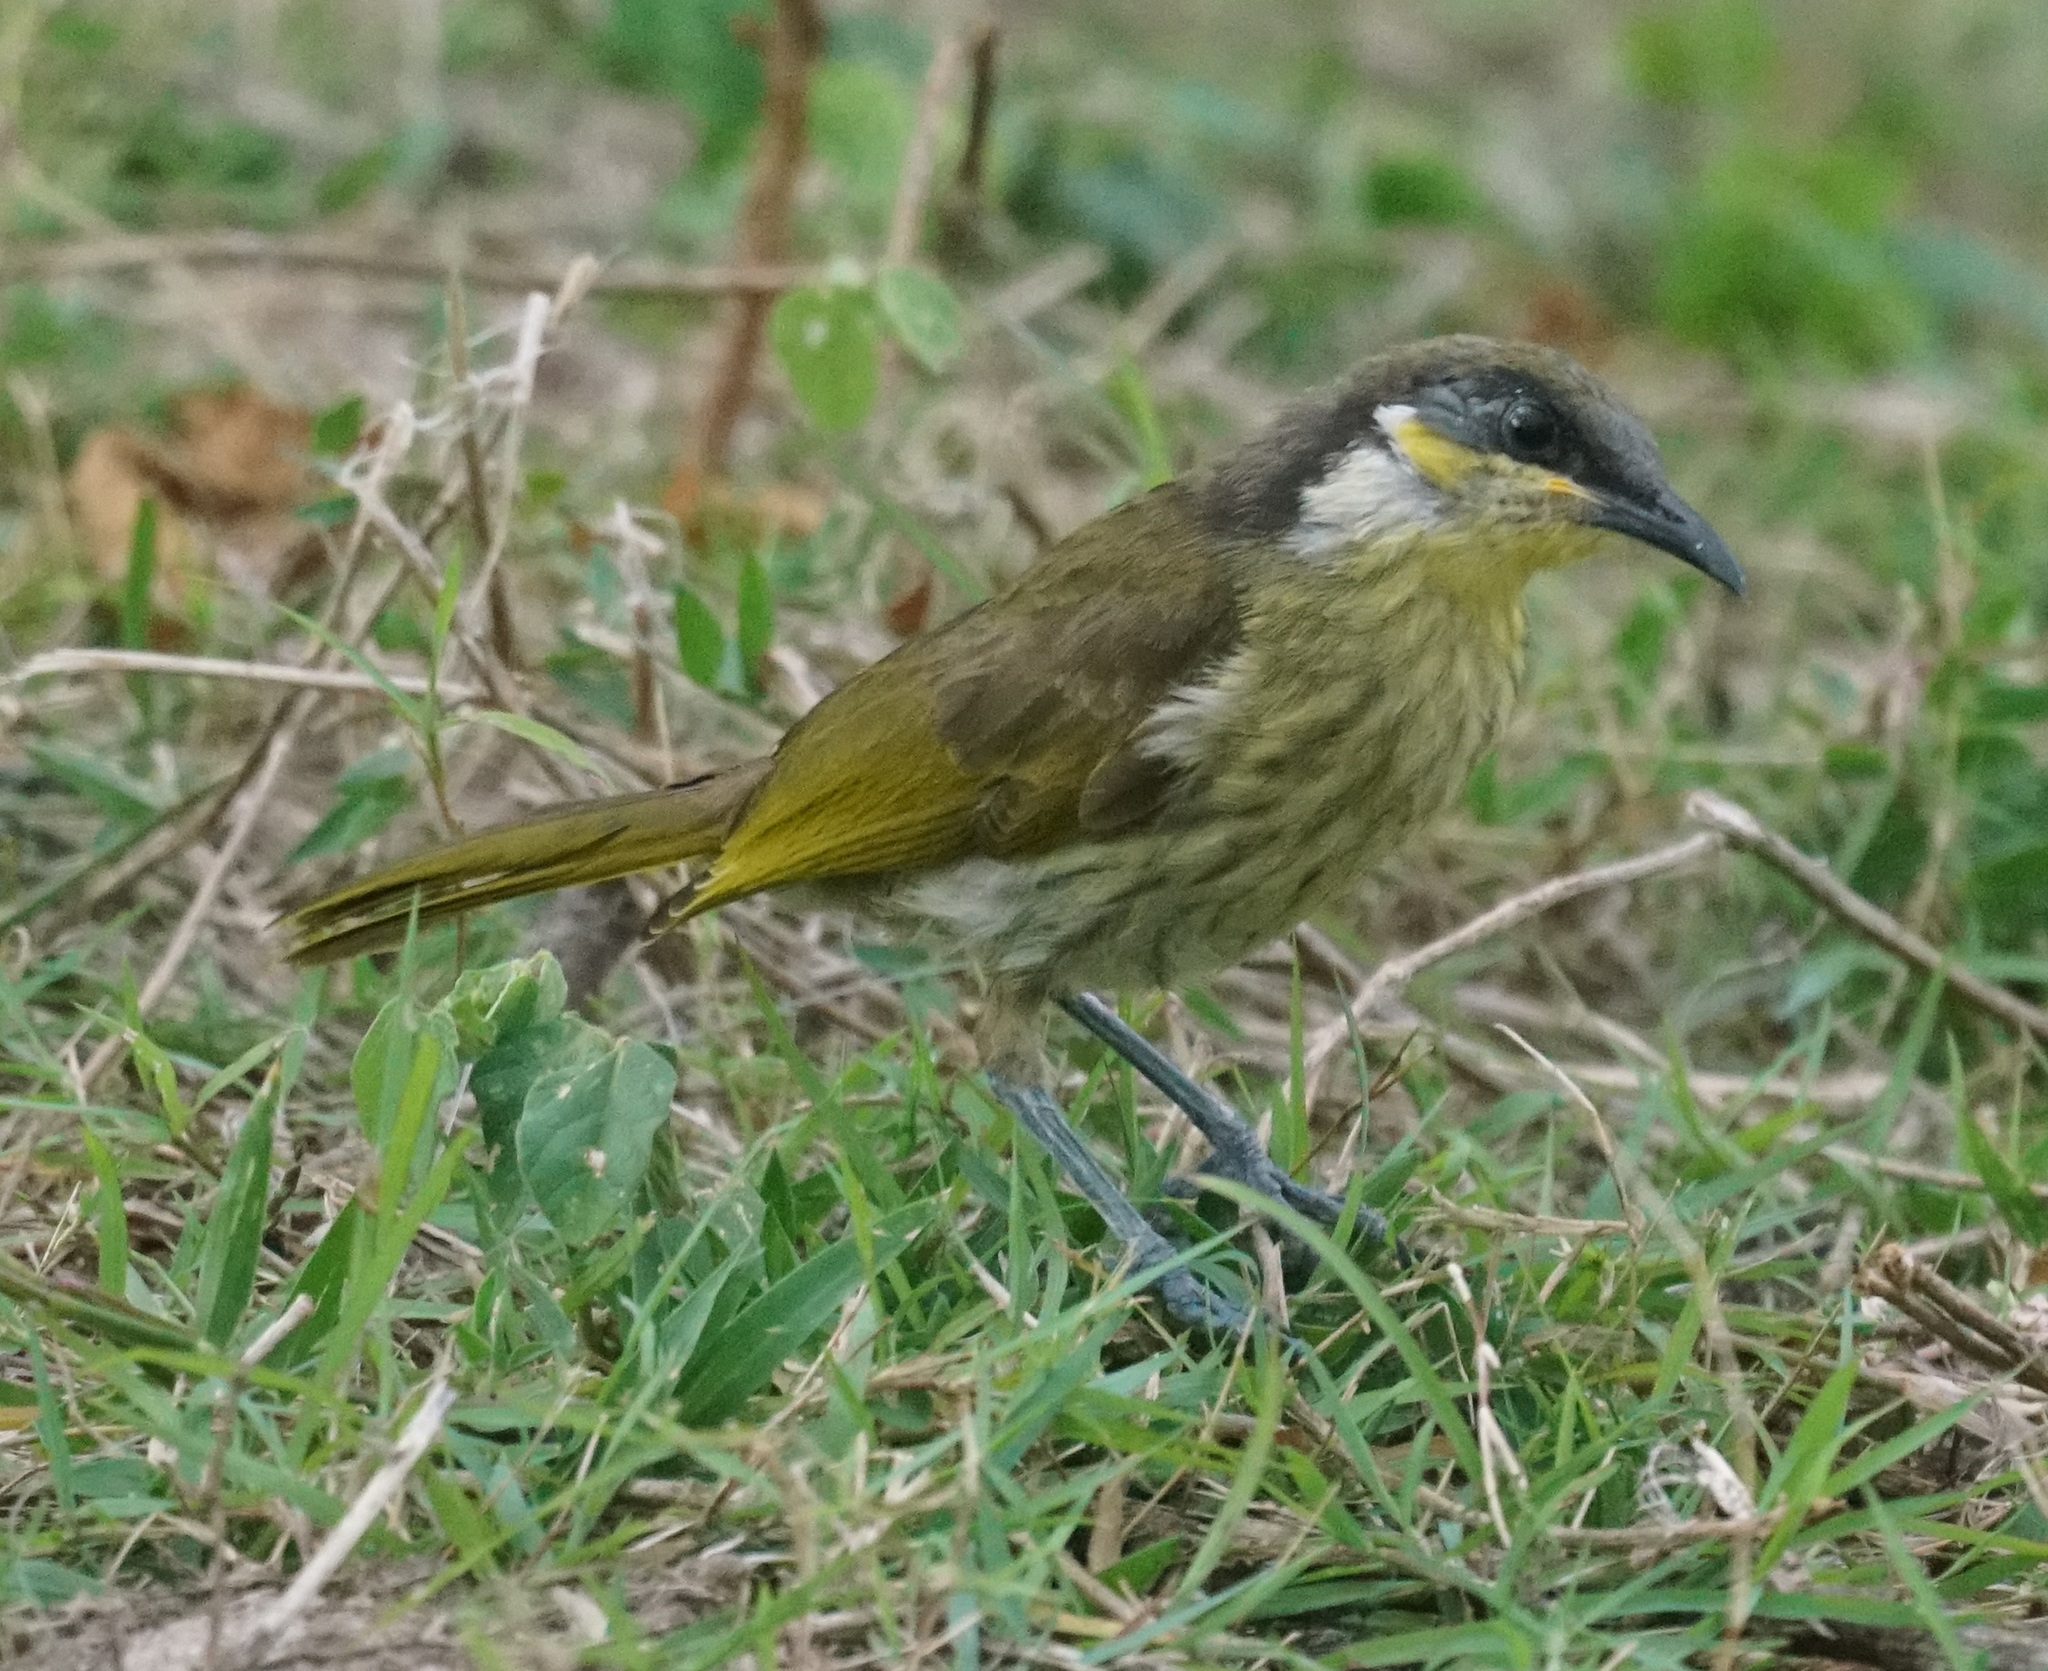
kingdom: Animalia
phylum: Chordata
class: Aves
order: Passeriformes
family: Meliphagidae
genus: Gavicalis
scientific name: Gavicalis versicolor
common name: Varied honeyeater
